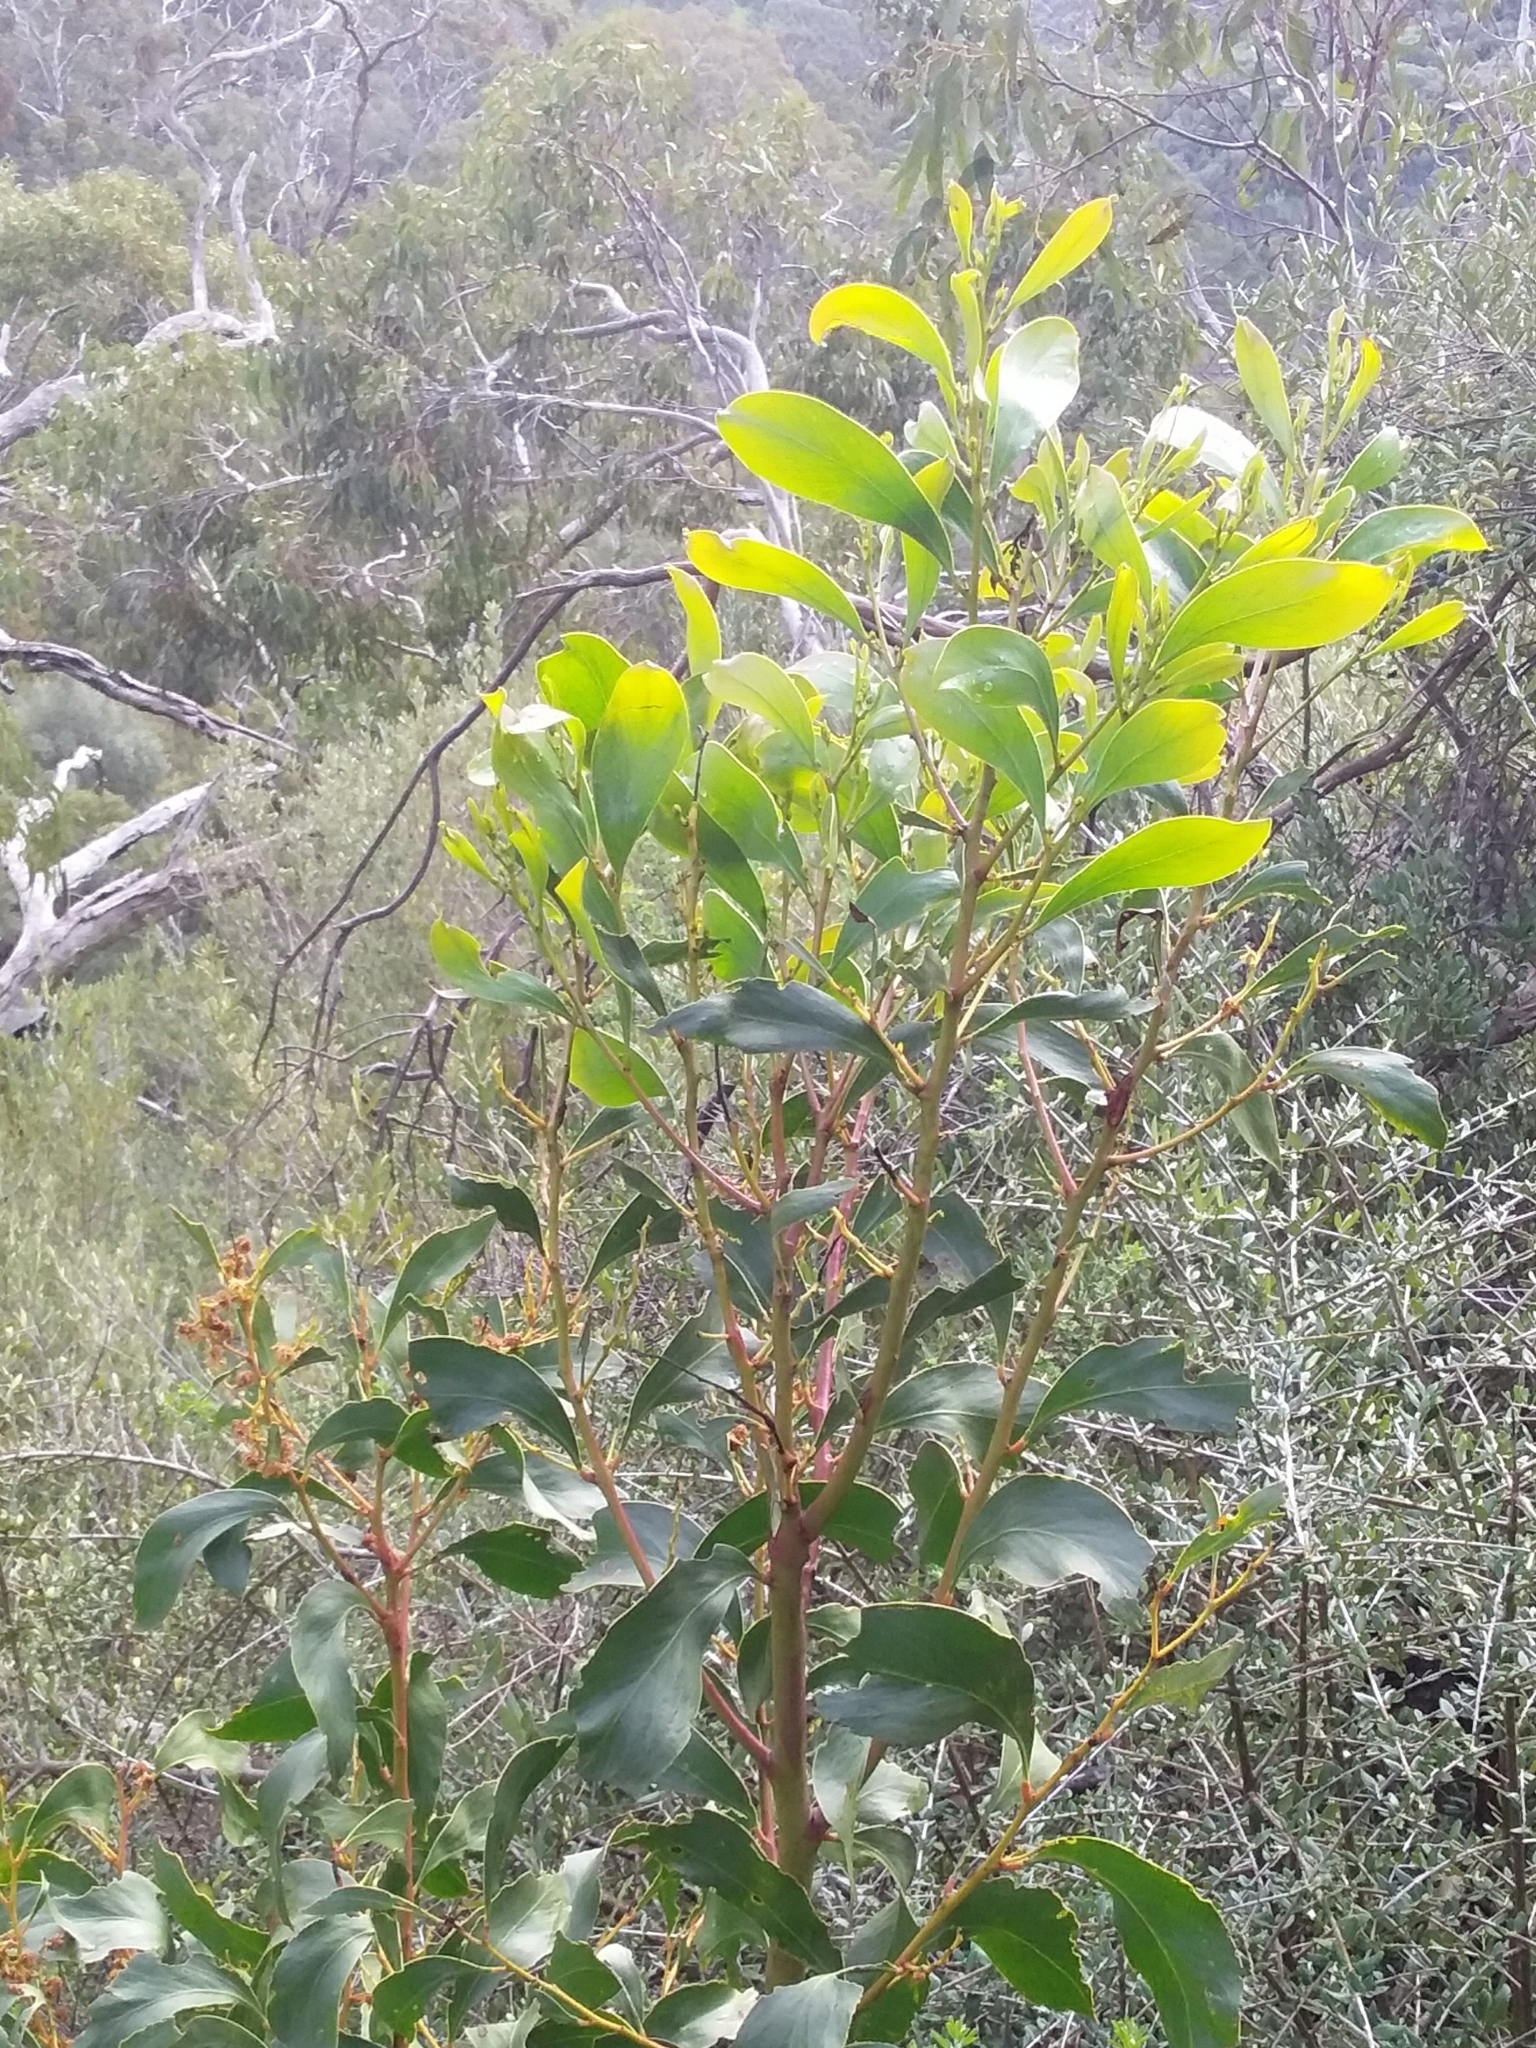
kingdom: Plantae
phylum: Tracheophyta
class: Magnoliopsida
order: Fabales
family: Fabaceae
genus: Acacia
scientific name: Acacia pycnantha
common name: Golden wattle
